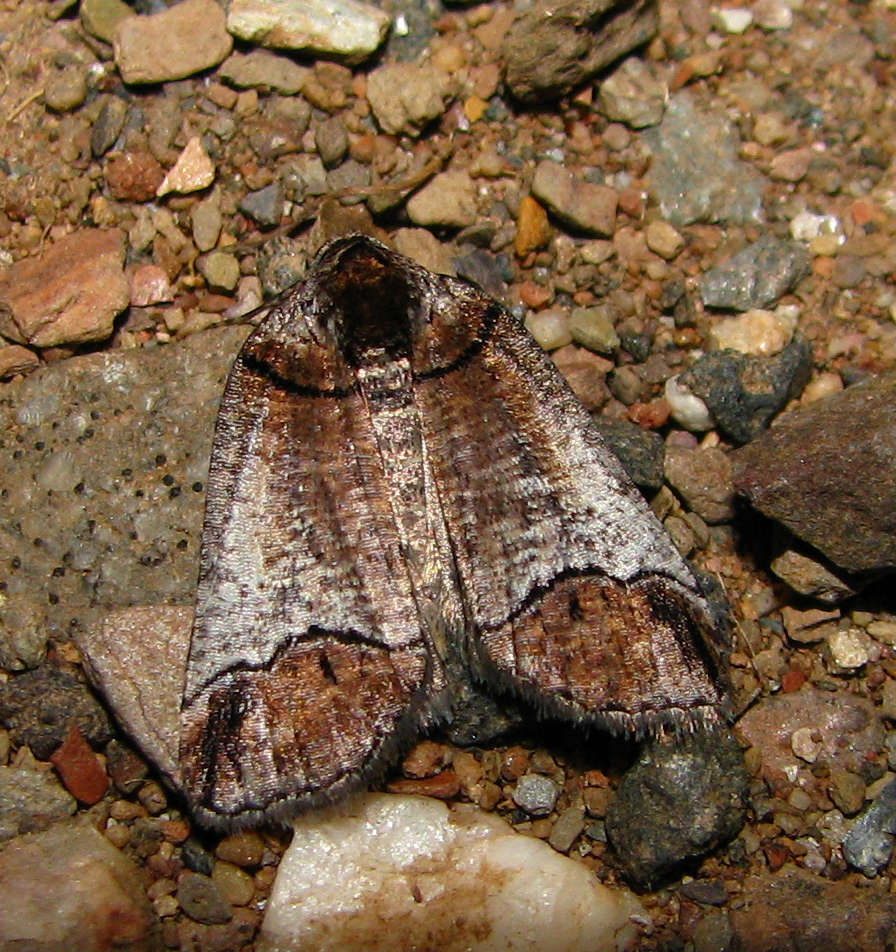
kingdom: Animalia
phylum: Arthropoda
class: Insecta
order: Lepidoptera
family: Geometridae
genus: Drymoptila
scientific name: Drymoptila temenitis
